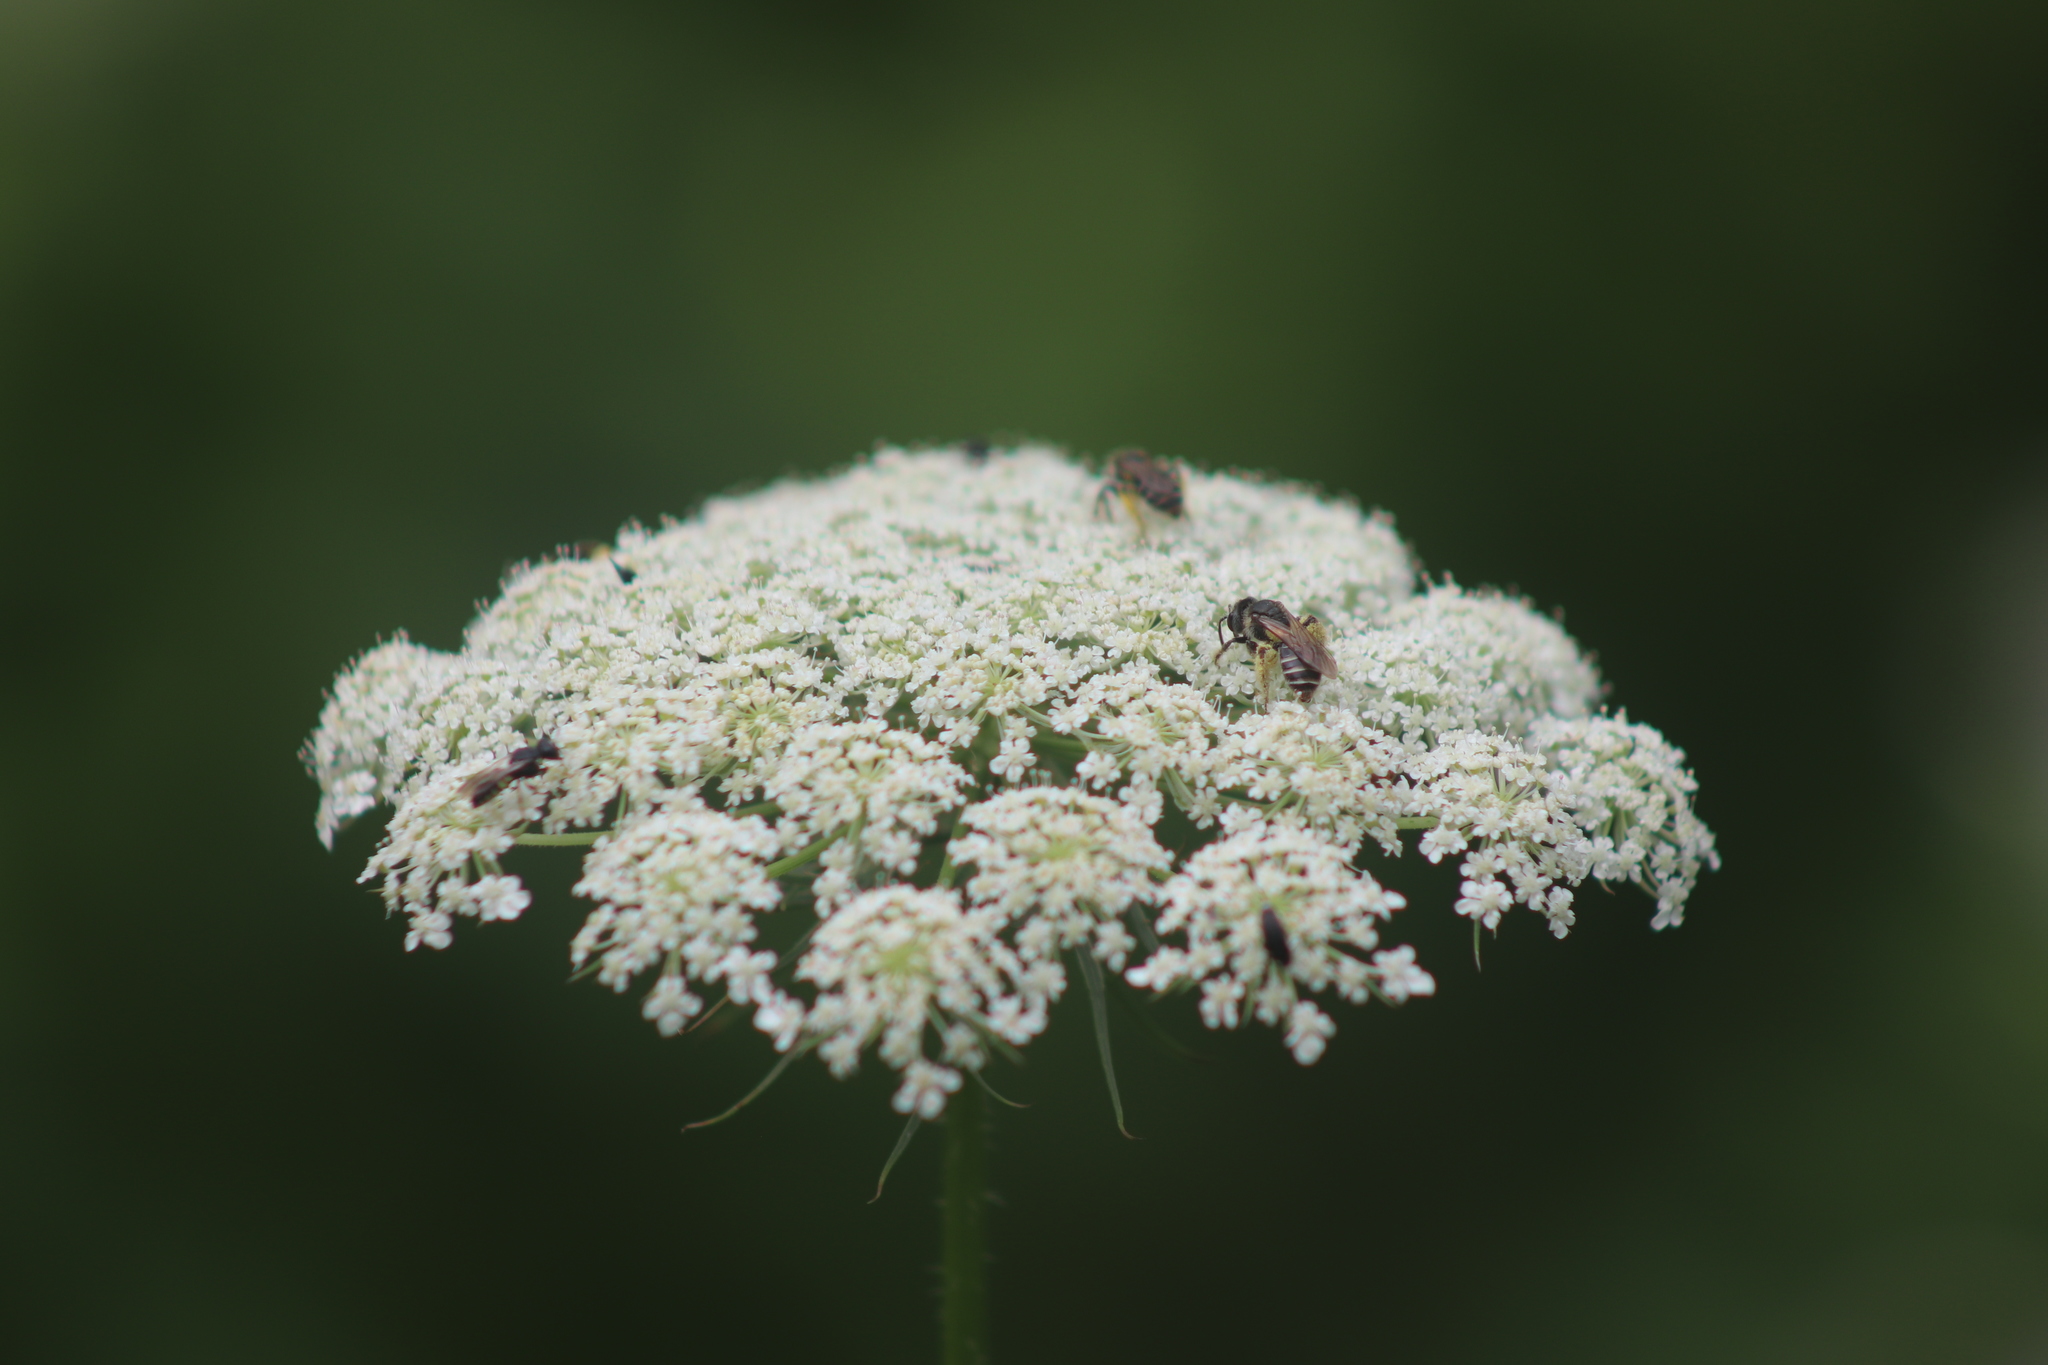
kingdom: Plantae
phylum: Tracheophyta
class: Magnoliopsida
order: Apiales
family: Apiaceae
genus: Daucus
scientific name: Daucus carota
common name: Wild carrot
